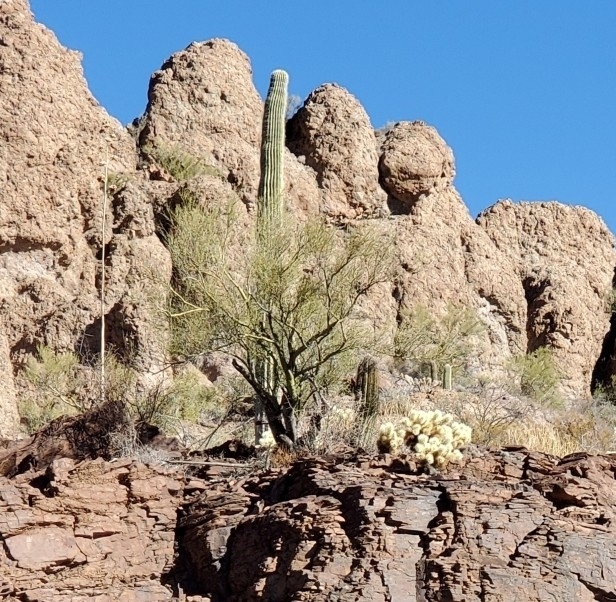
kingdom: Plantae
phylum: Tracheophyta
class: Magnoliopsida
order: Fabales
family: Fabaceae
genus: Parkinsonia
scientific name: Parkinsonia microphylla
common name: Yellow paloverde
